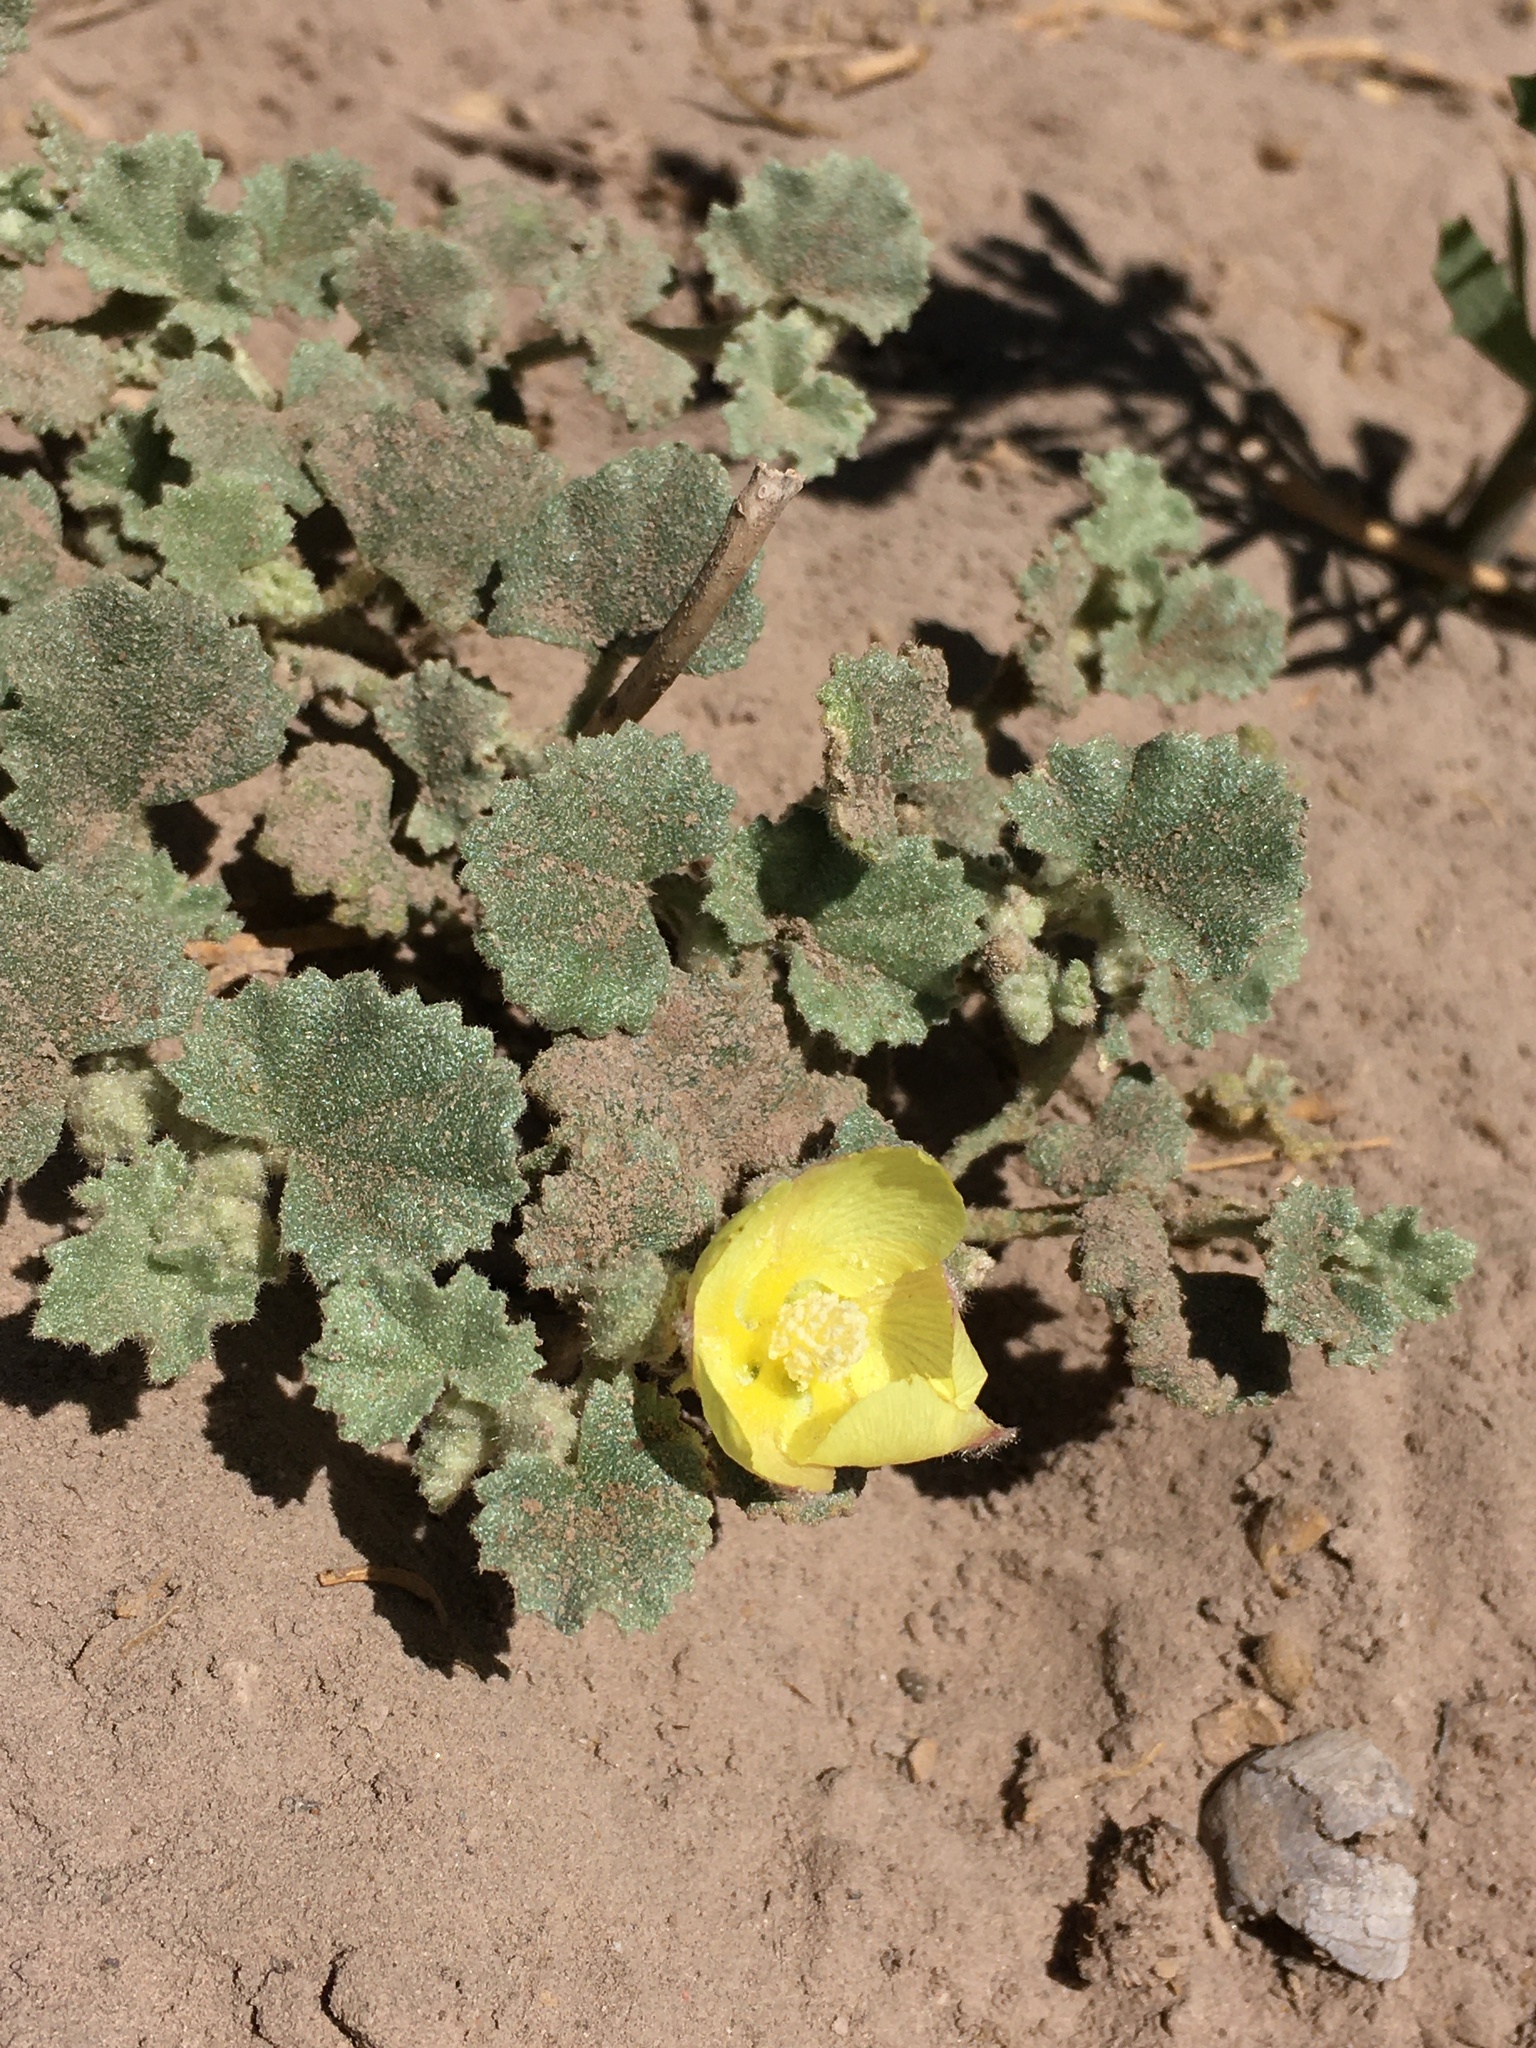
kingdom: Plantae
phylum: Tracheophyta
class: Magnoliopsida
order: Malvales
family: Malvaceae
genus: Malvella
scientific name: Malvella leprosa
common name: Alkali-mallow
